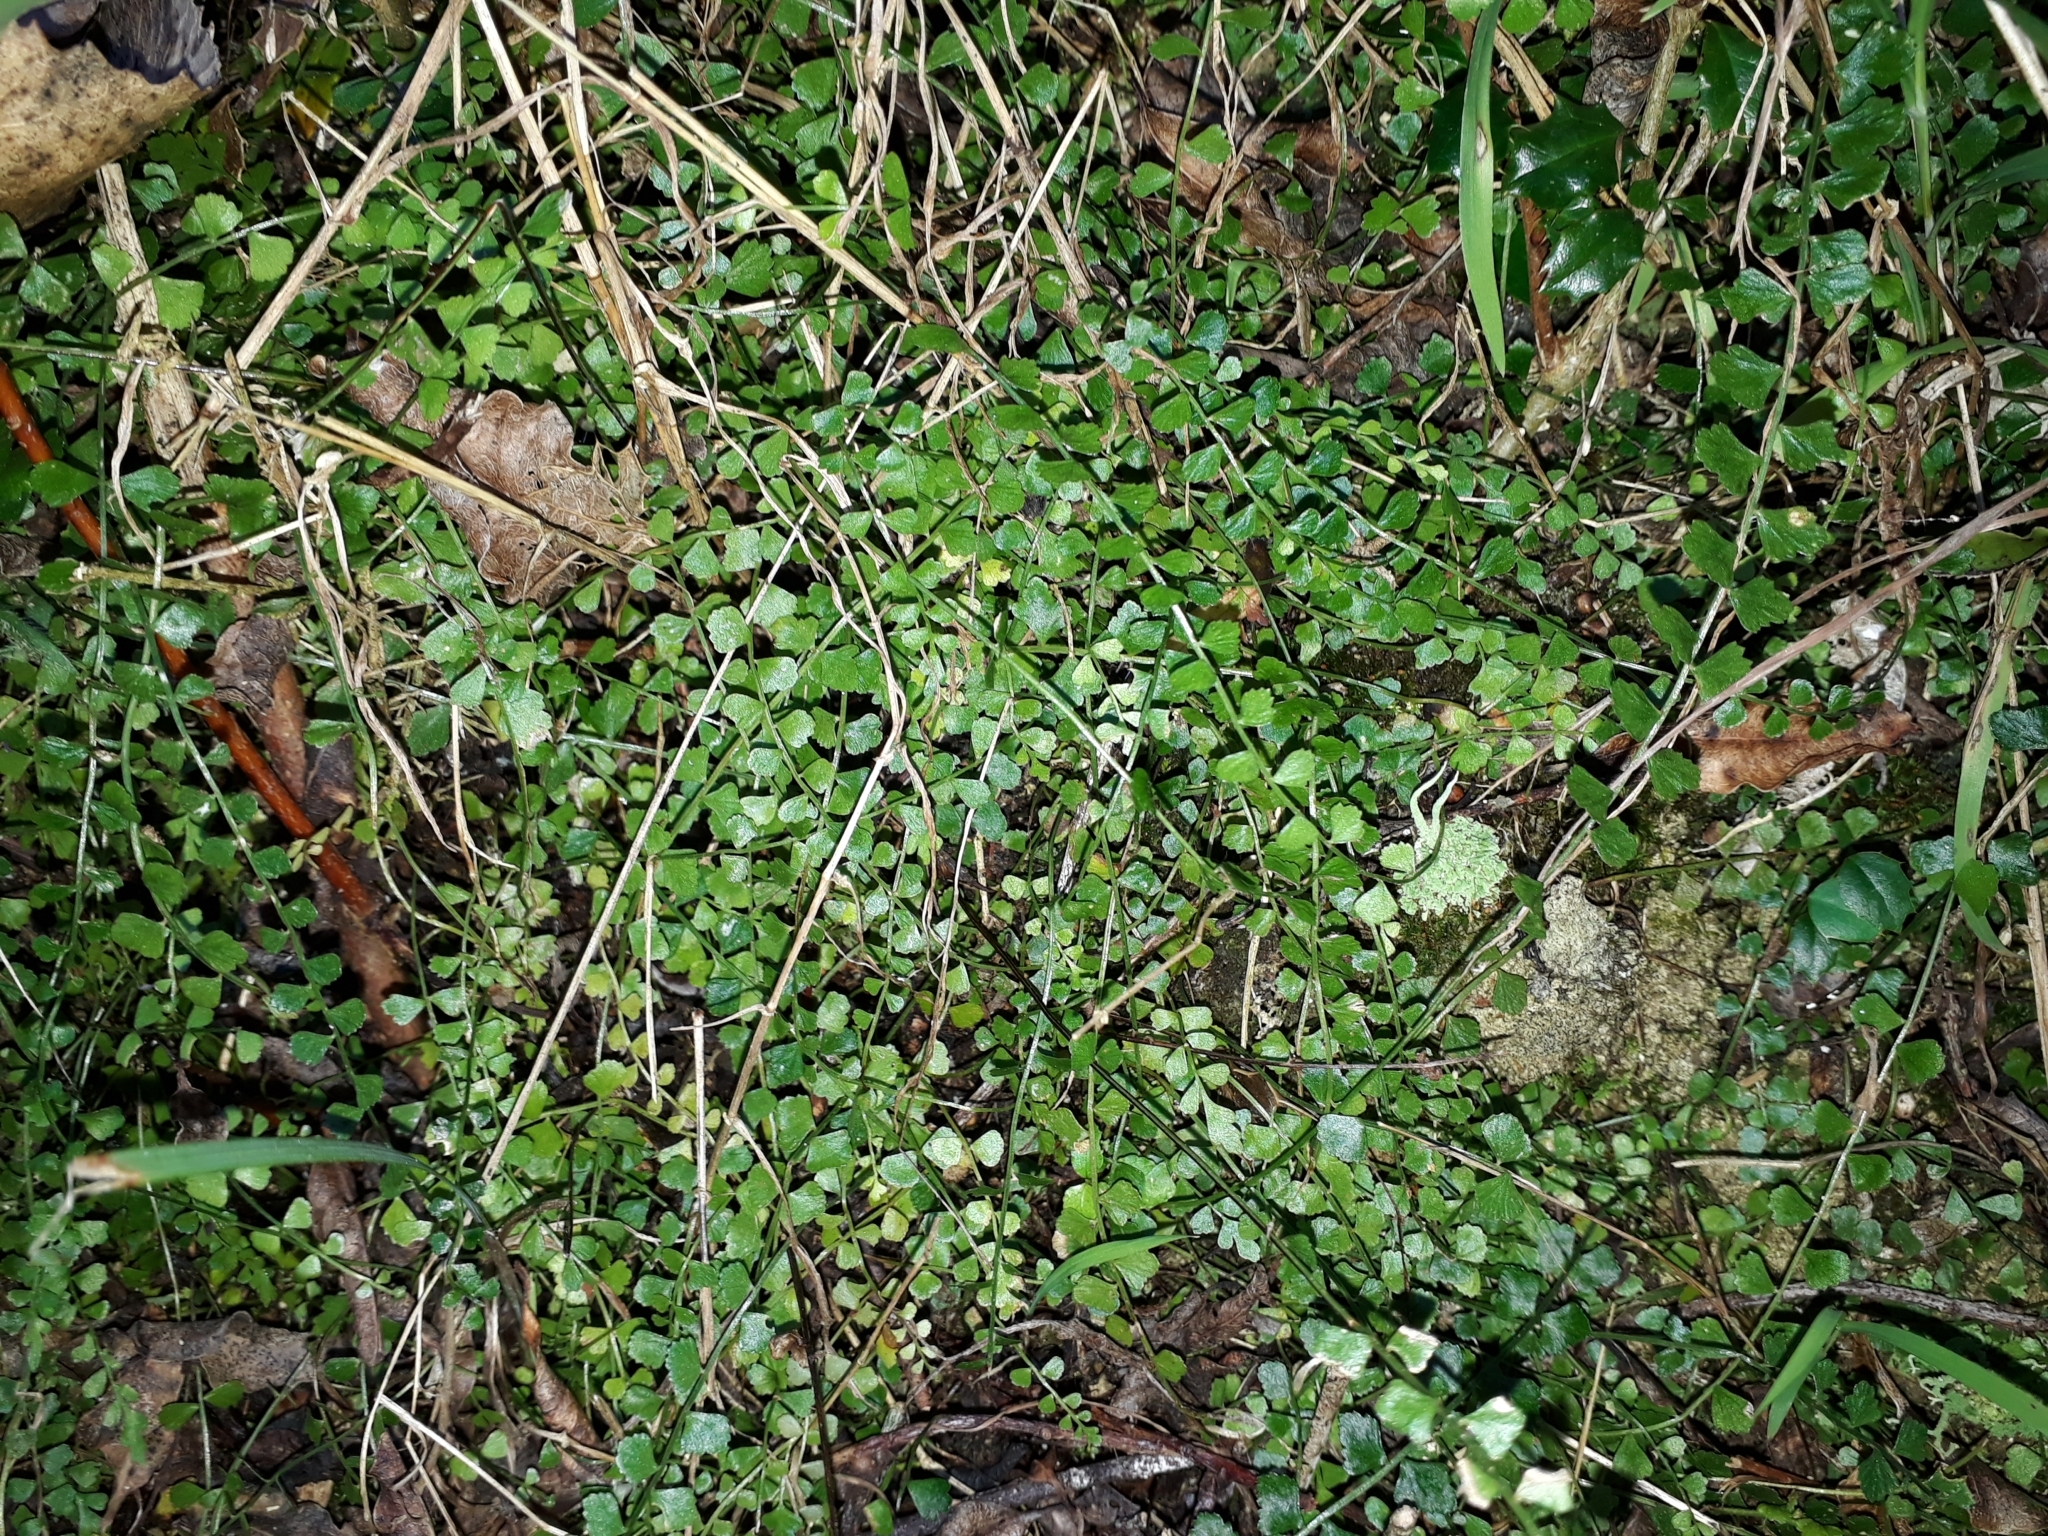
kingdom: Plantae
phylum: Tracheophyta
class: Polypodiopsida
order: Polypodiales
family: Aspleniaceae
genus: Asplenium
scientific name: Asplenium flabellifolium
